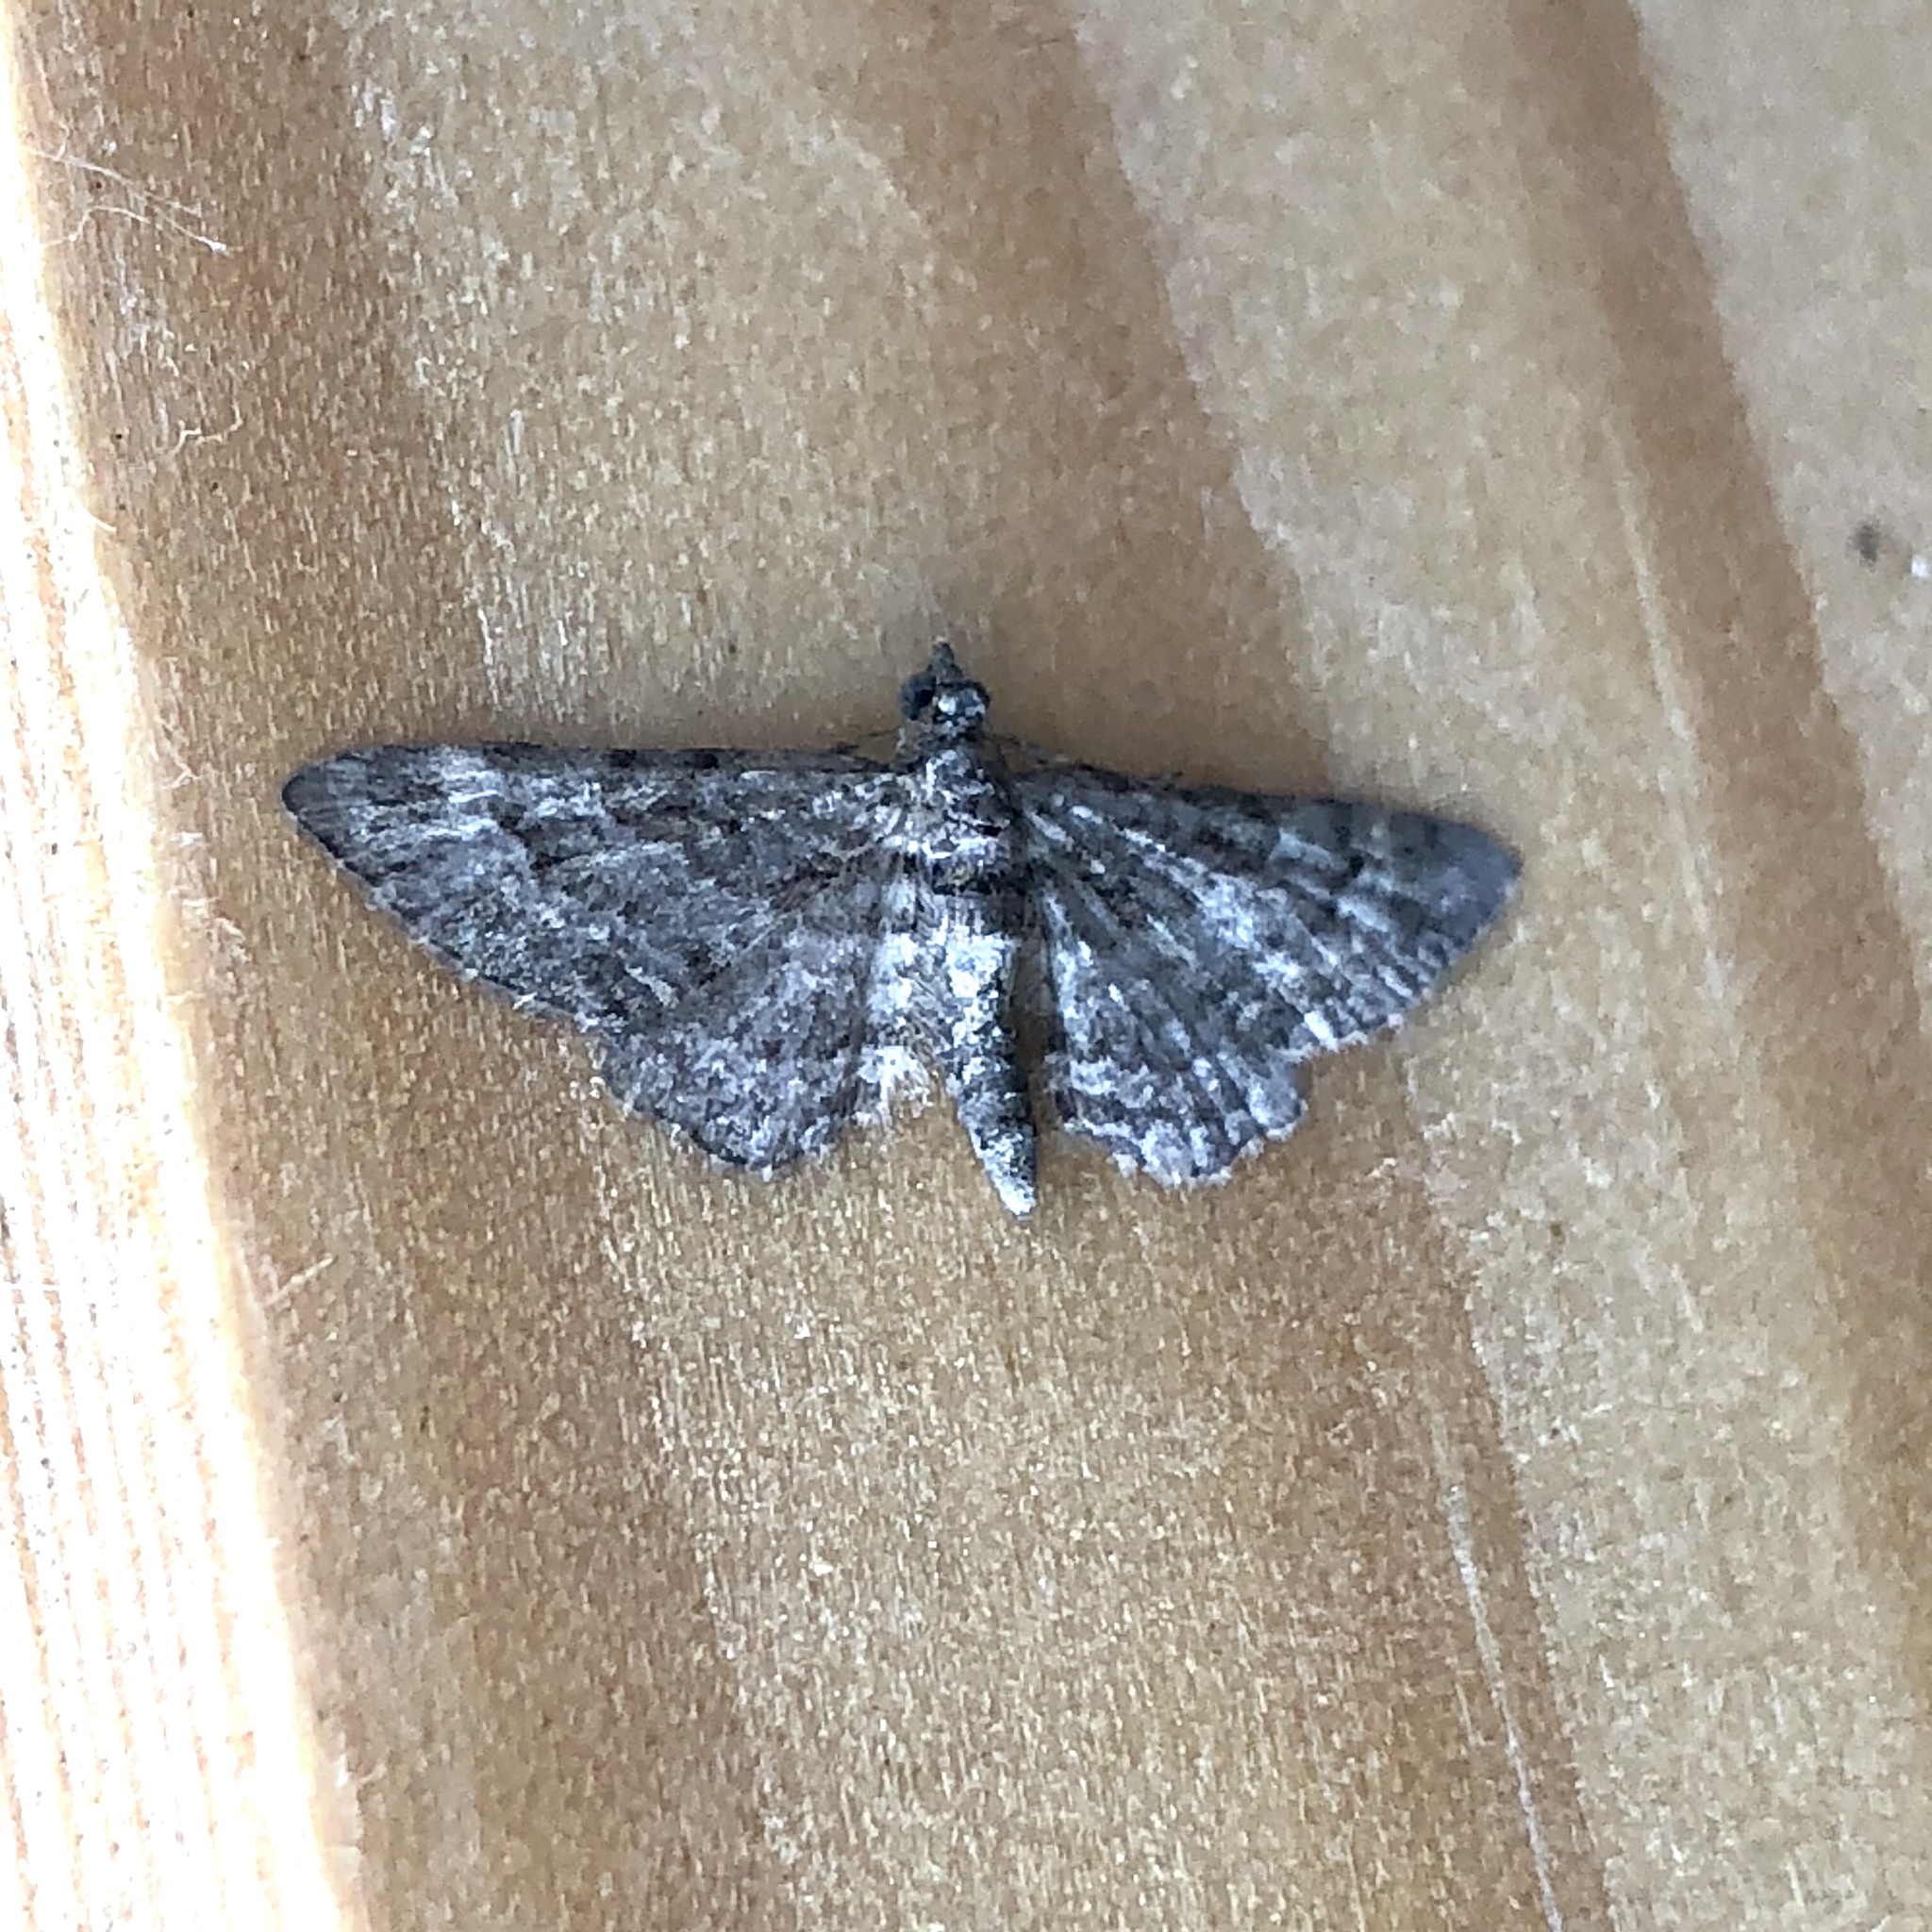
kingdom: Animalia
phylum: Arthropoda
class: Insecta
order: Lepidoptera
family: Geometridae
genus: Gymnoscelis
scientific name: Gymnoscelis rufifasciata
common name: Double-striped pug
